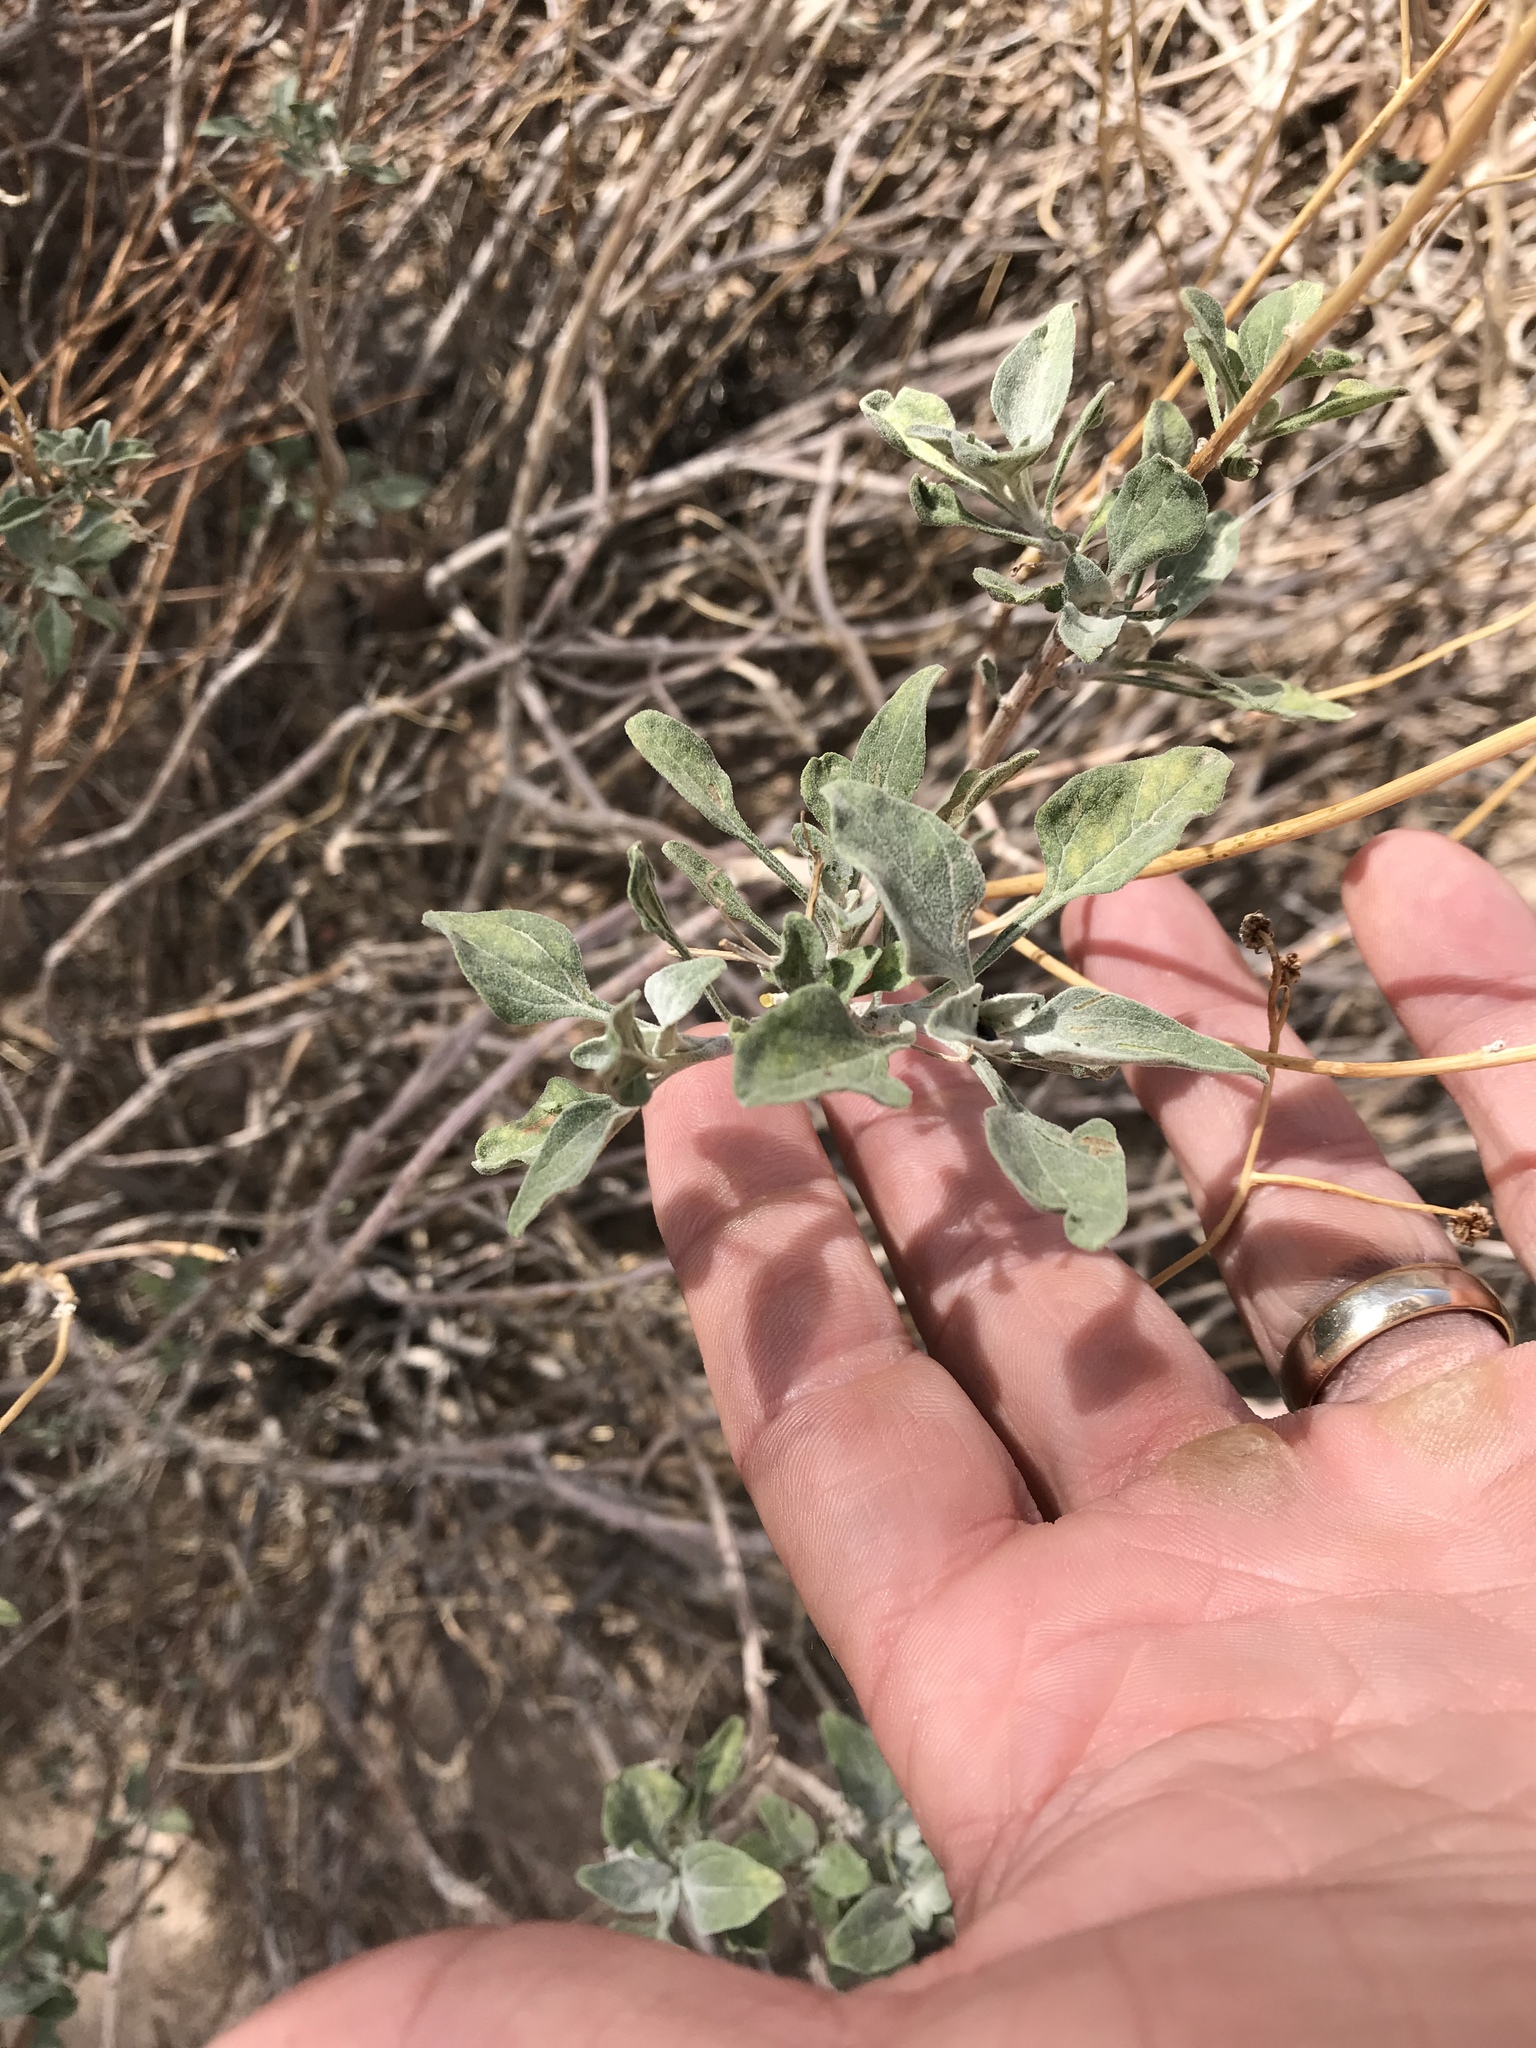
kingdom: Plantae
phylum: Tracheophyta
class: Magnoliopsida
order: Asterales
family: Asteraceae
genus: Encelia
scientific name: Encelia farinosa
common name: Brittlebush
